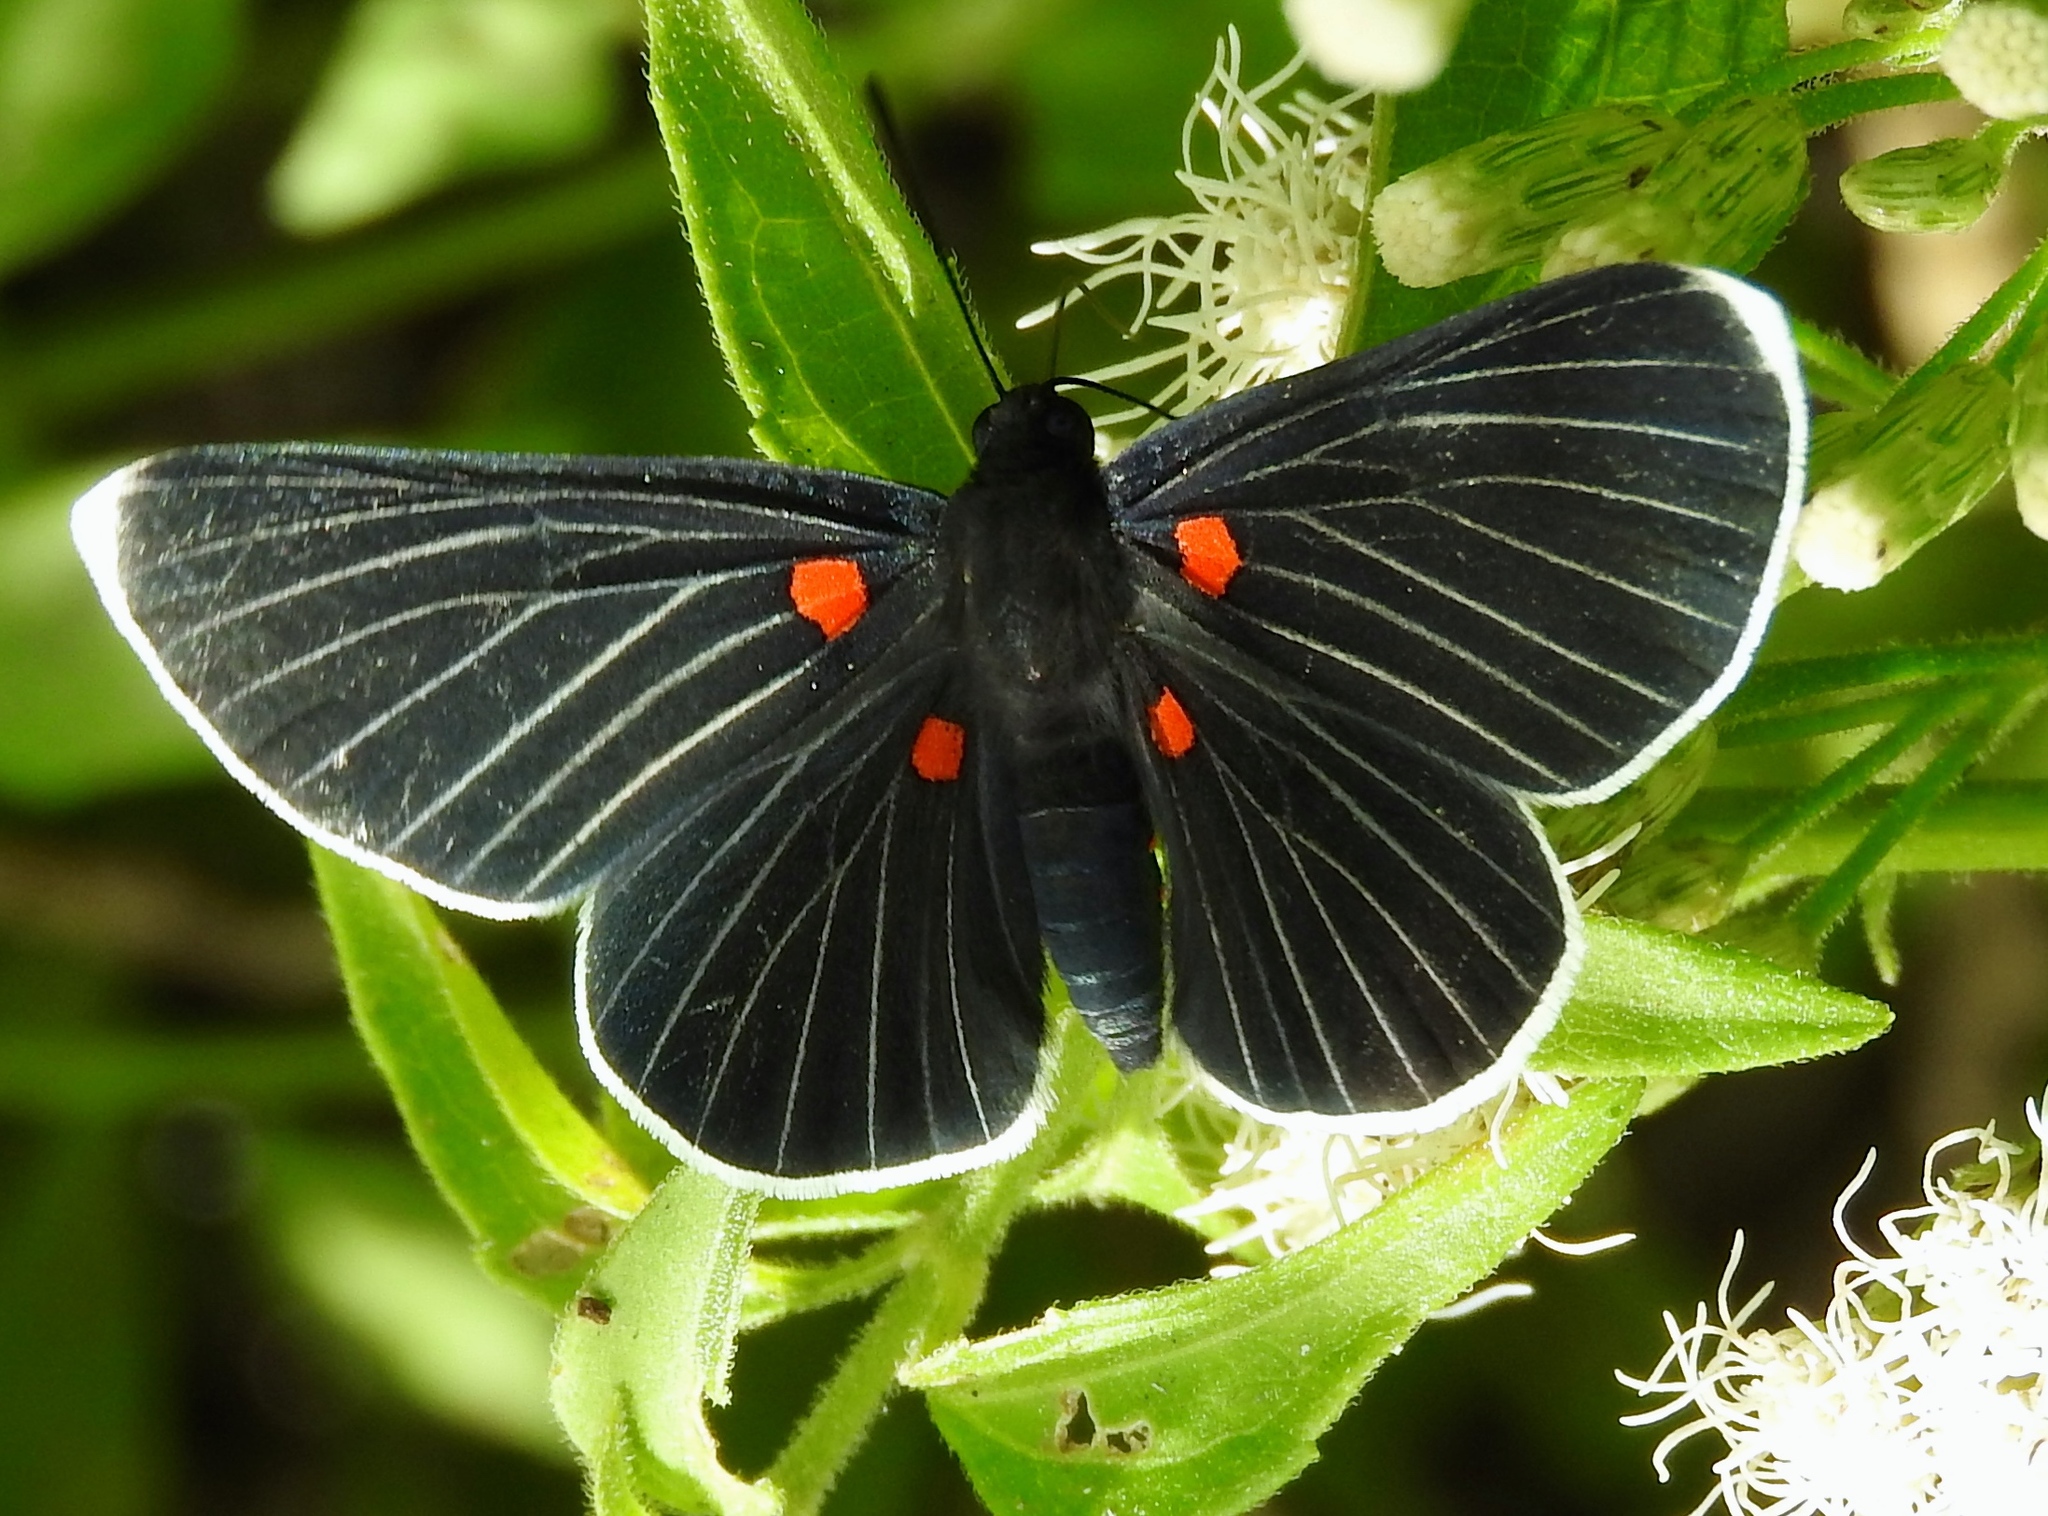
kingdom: Animalia
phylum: Arthropoda
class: Insecta
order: Lepidoptera
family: Lycaenidae
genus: Melanis
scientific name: Melanis
